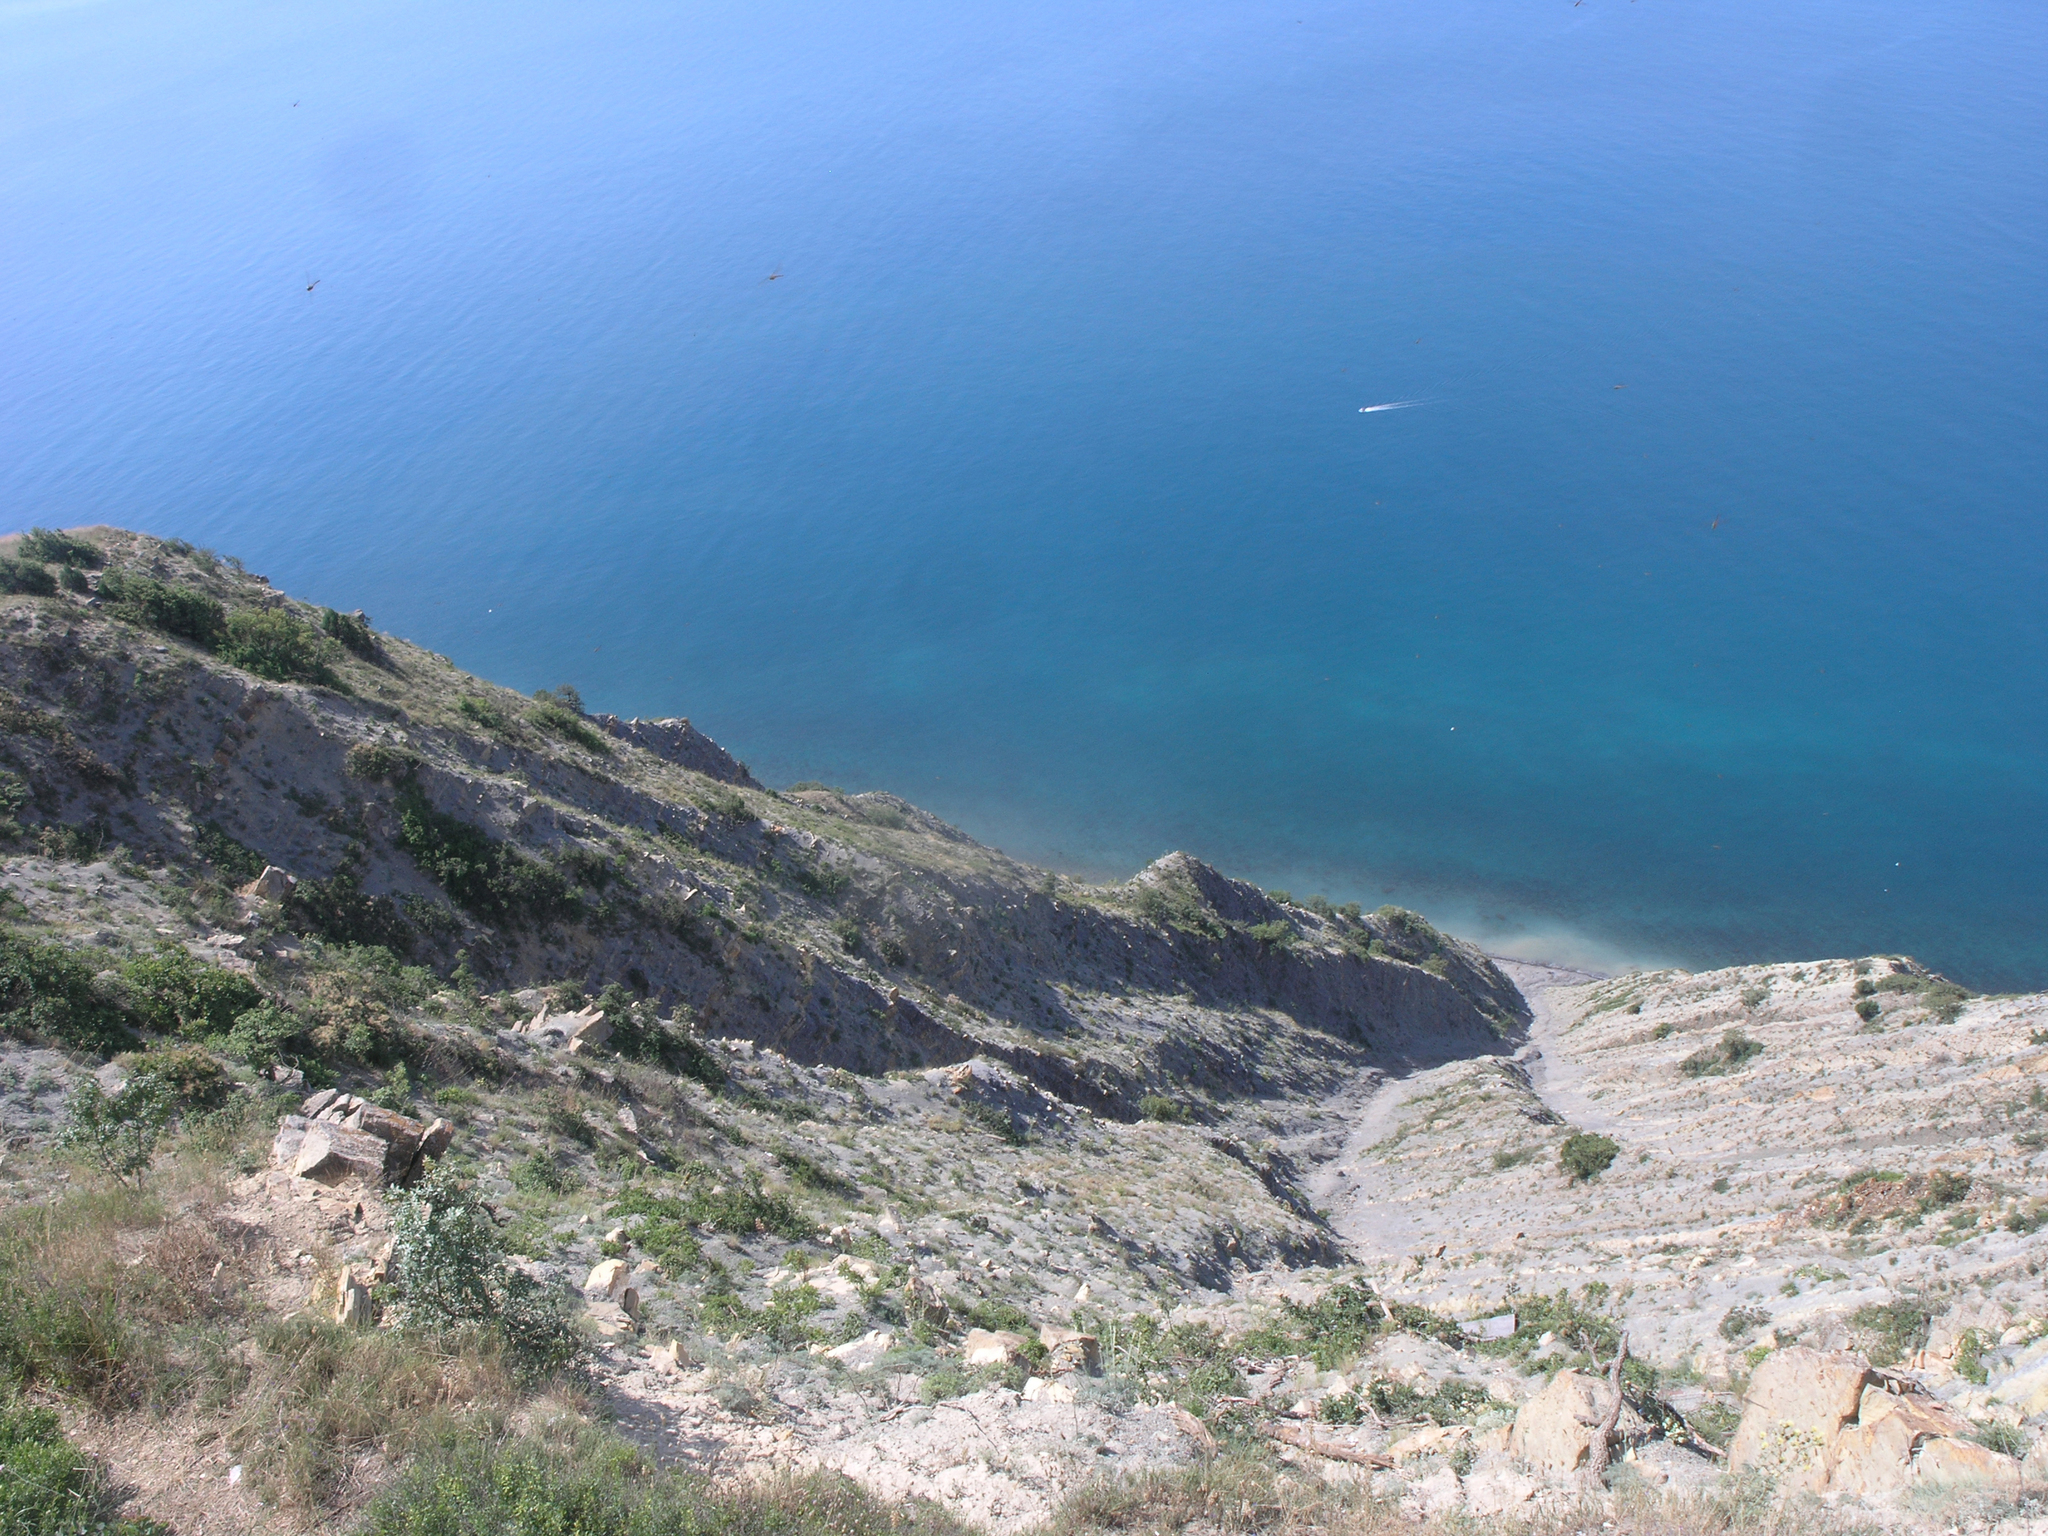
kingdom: Animalia
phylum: Arthropoda
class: Insecta
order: Odonata
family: Aeshnidae
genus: Aeshna
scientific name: Aeshna mixta
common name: Migrant hawker
